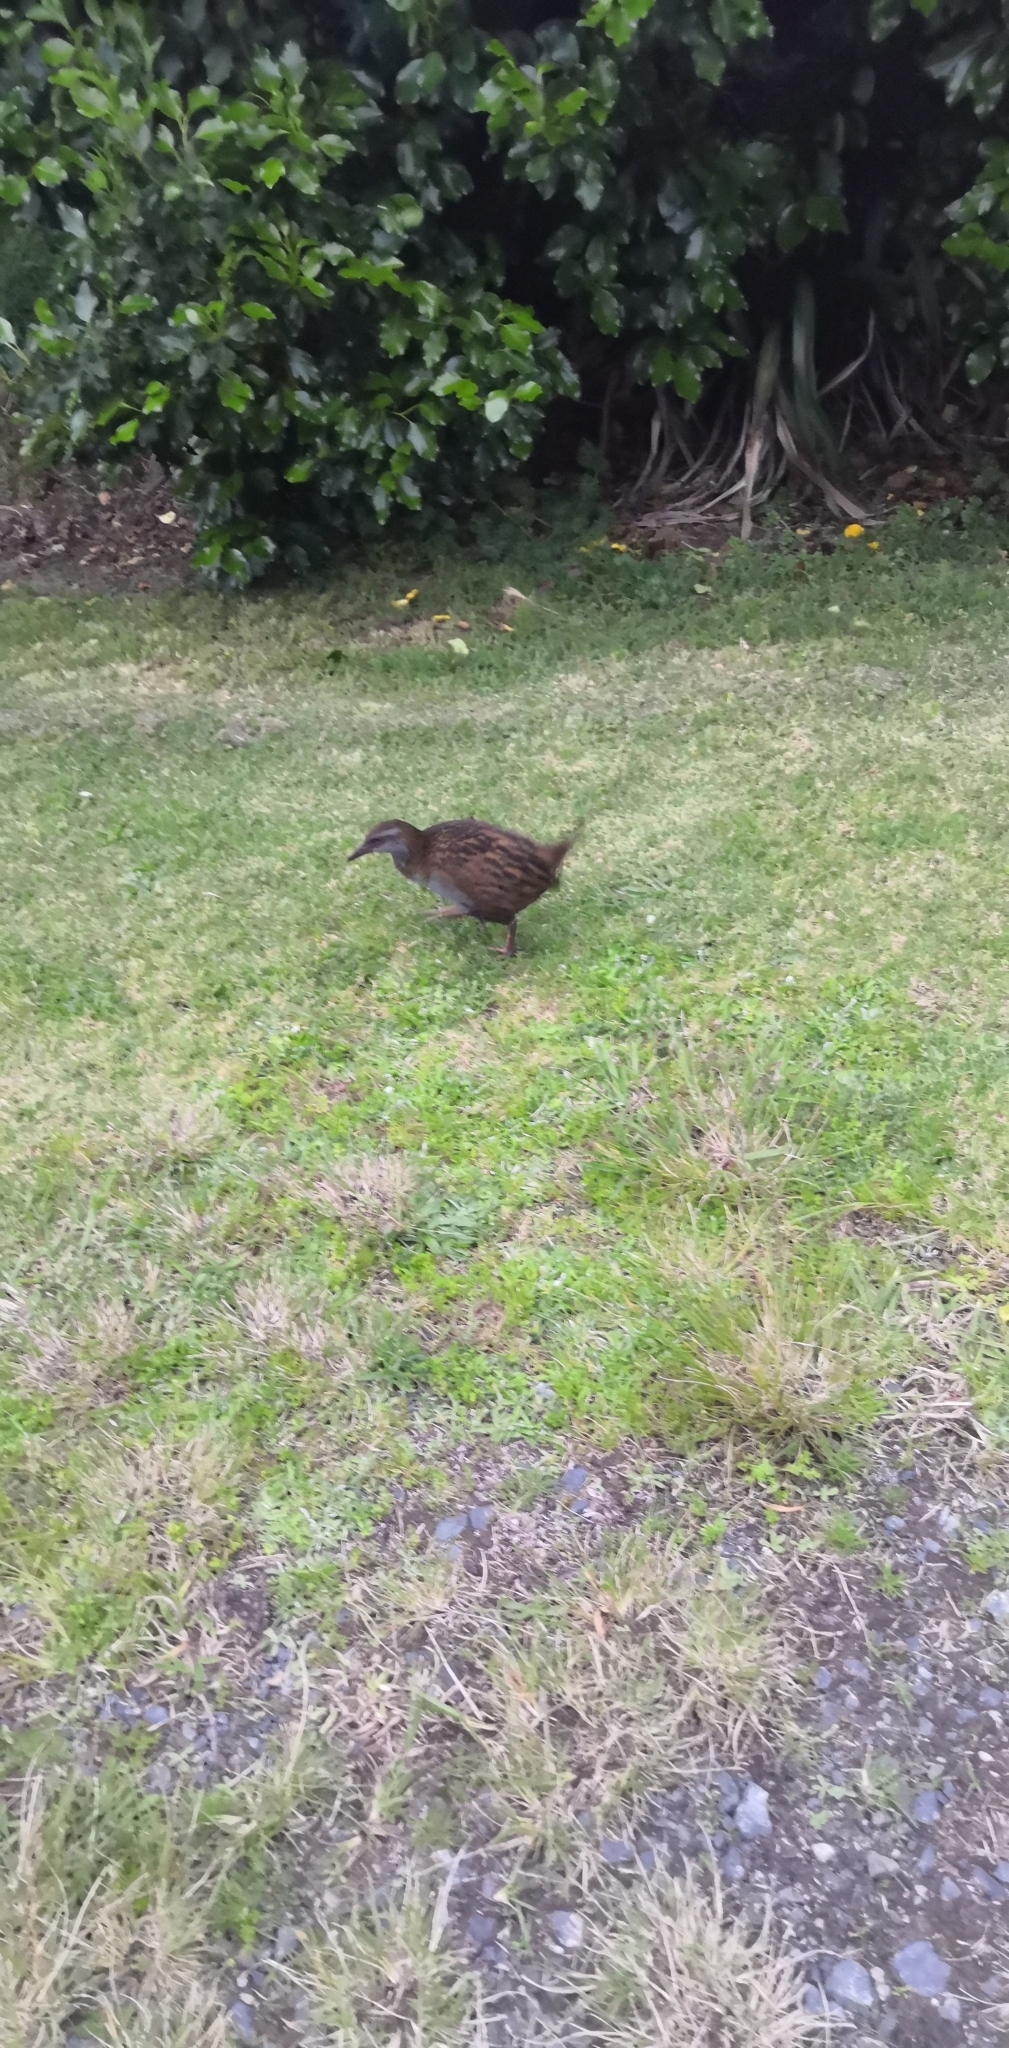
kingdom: Animalia
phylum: Chordata
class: Aves
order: Gruiformes
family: Rallidae
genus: Gallirallus
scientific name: Gallirallus australis
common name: Weka
